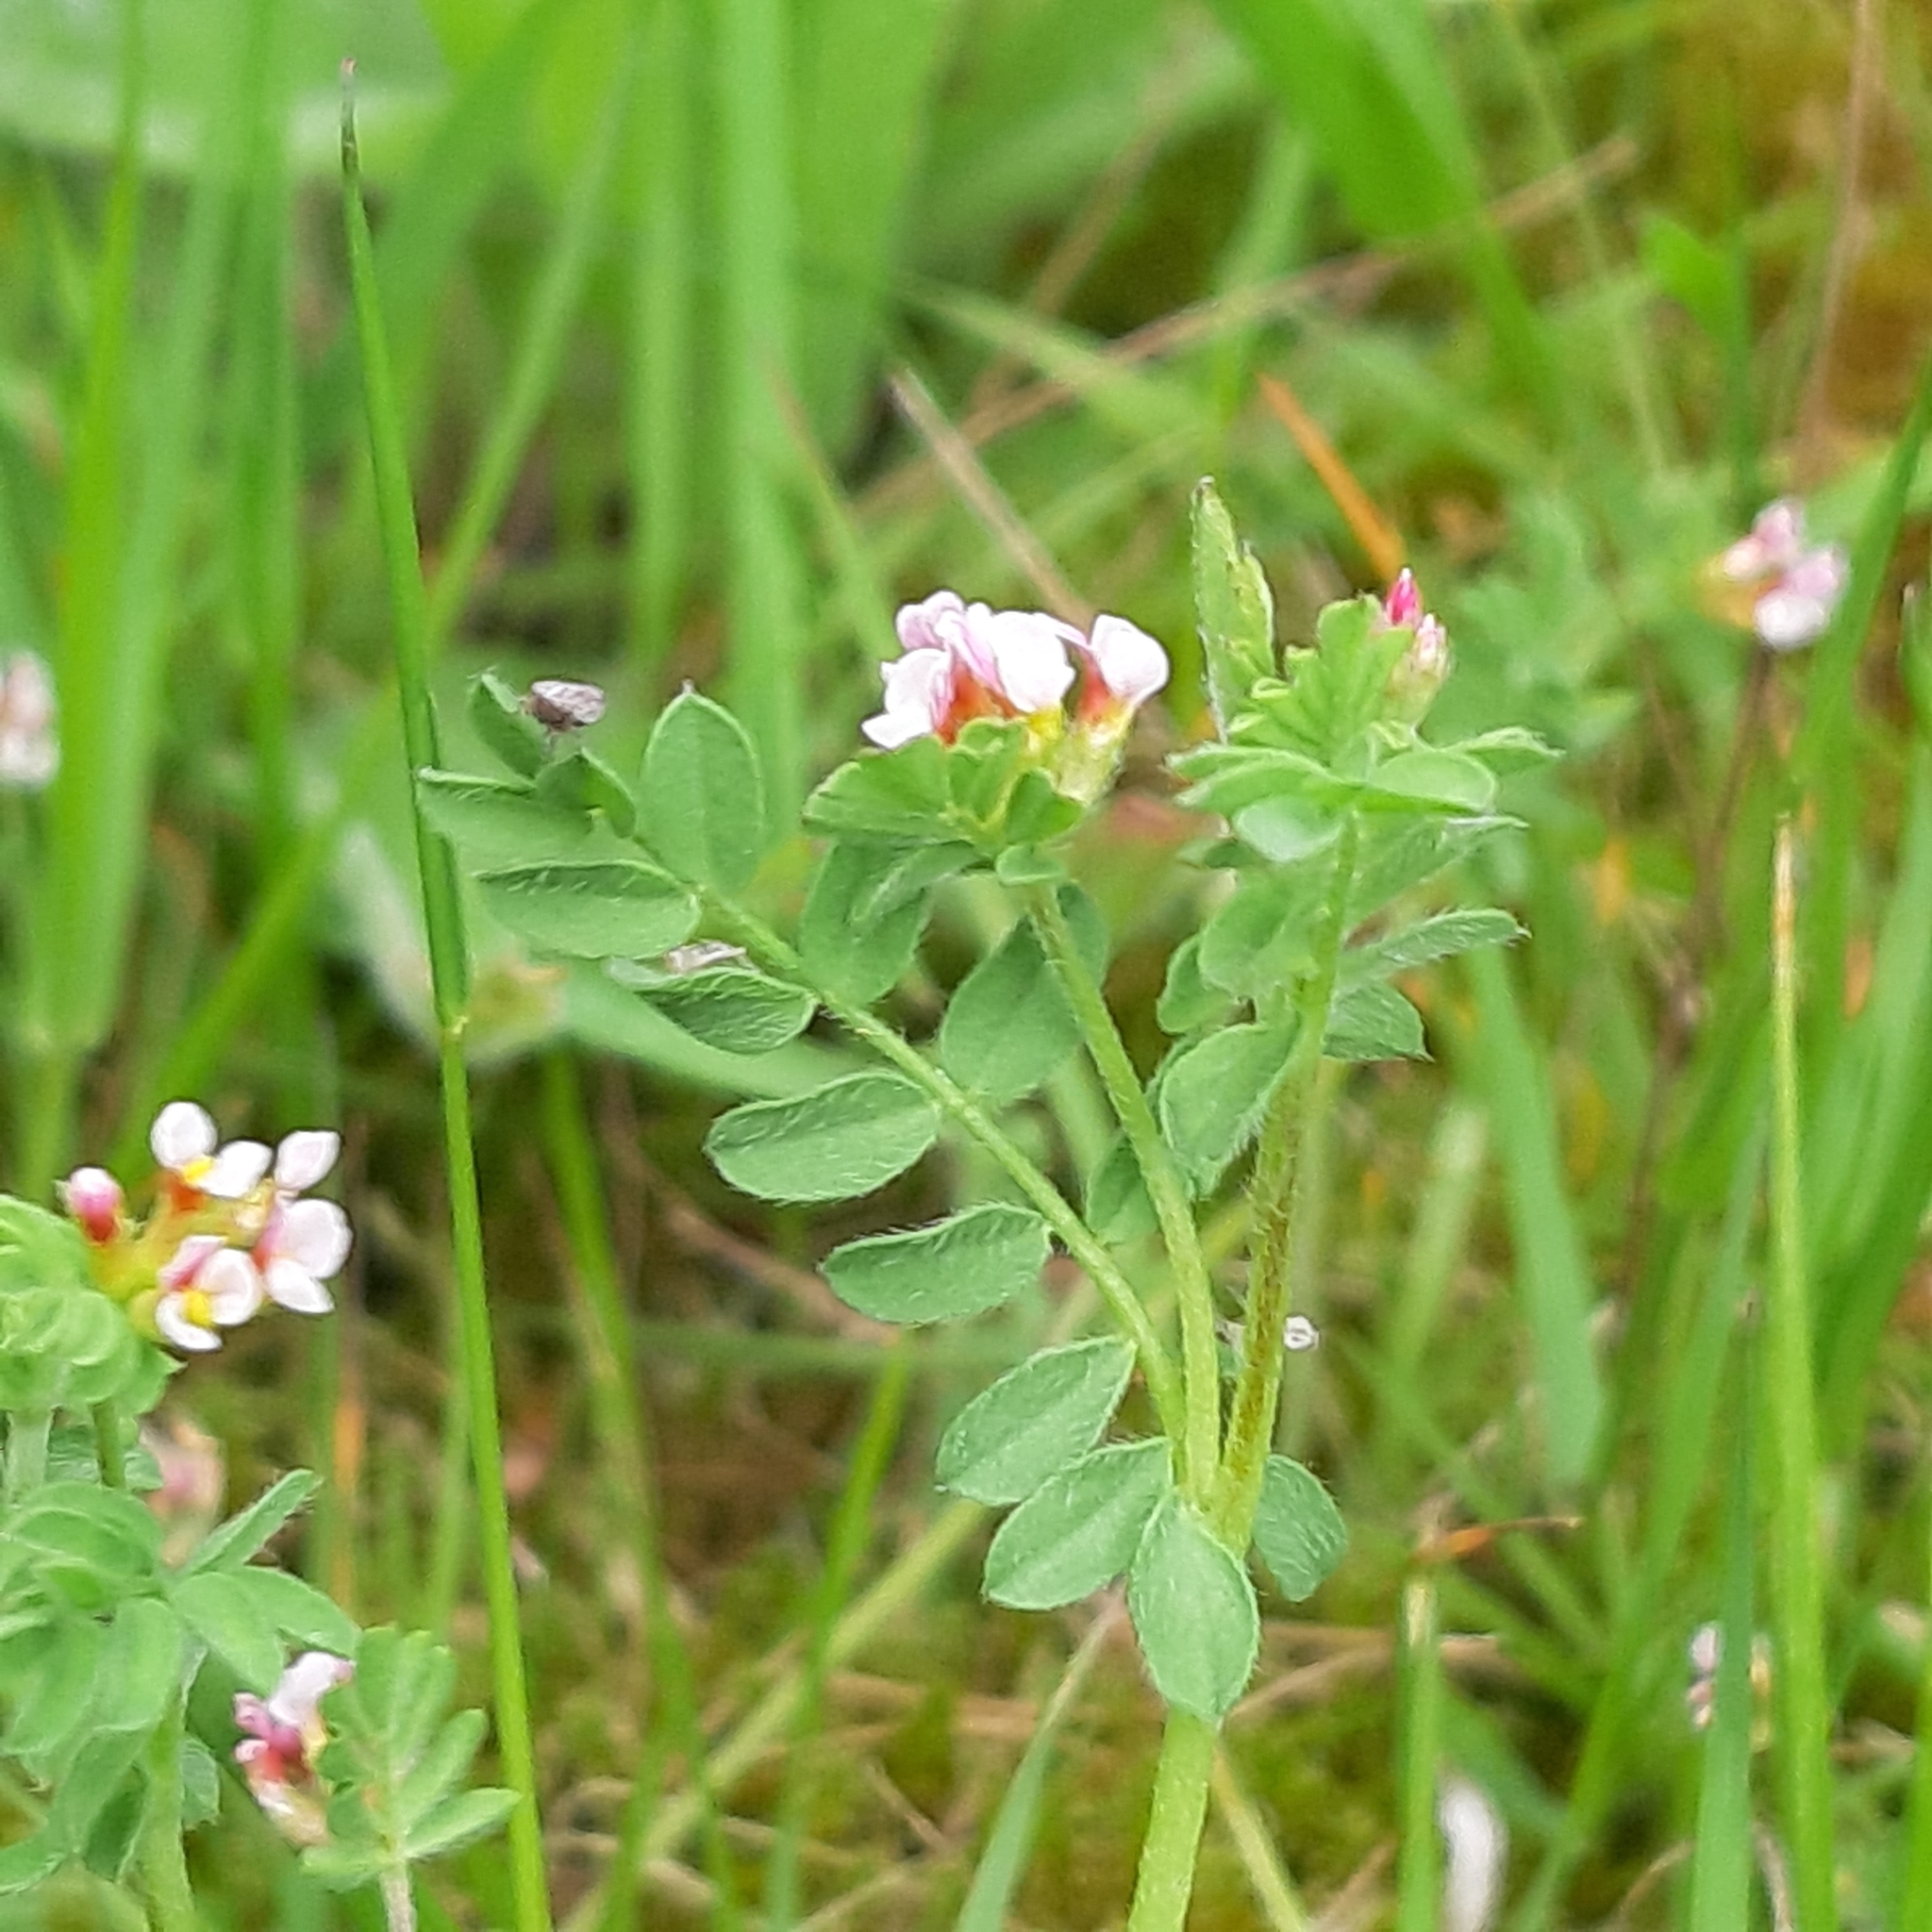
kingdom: Plantae
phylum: Tracheophyta
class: Magnoliopsida
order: Fabales
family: Fabaceae
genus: Ornithopus
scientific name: Ornithopus perpusillus
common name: Bird's-foot
